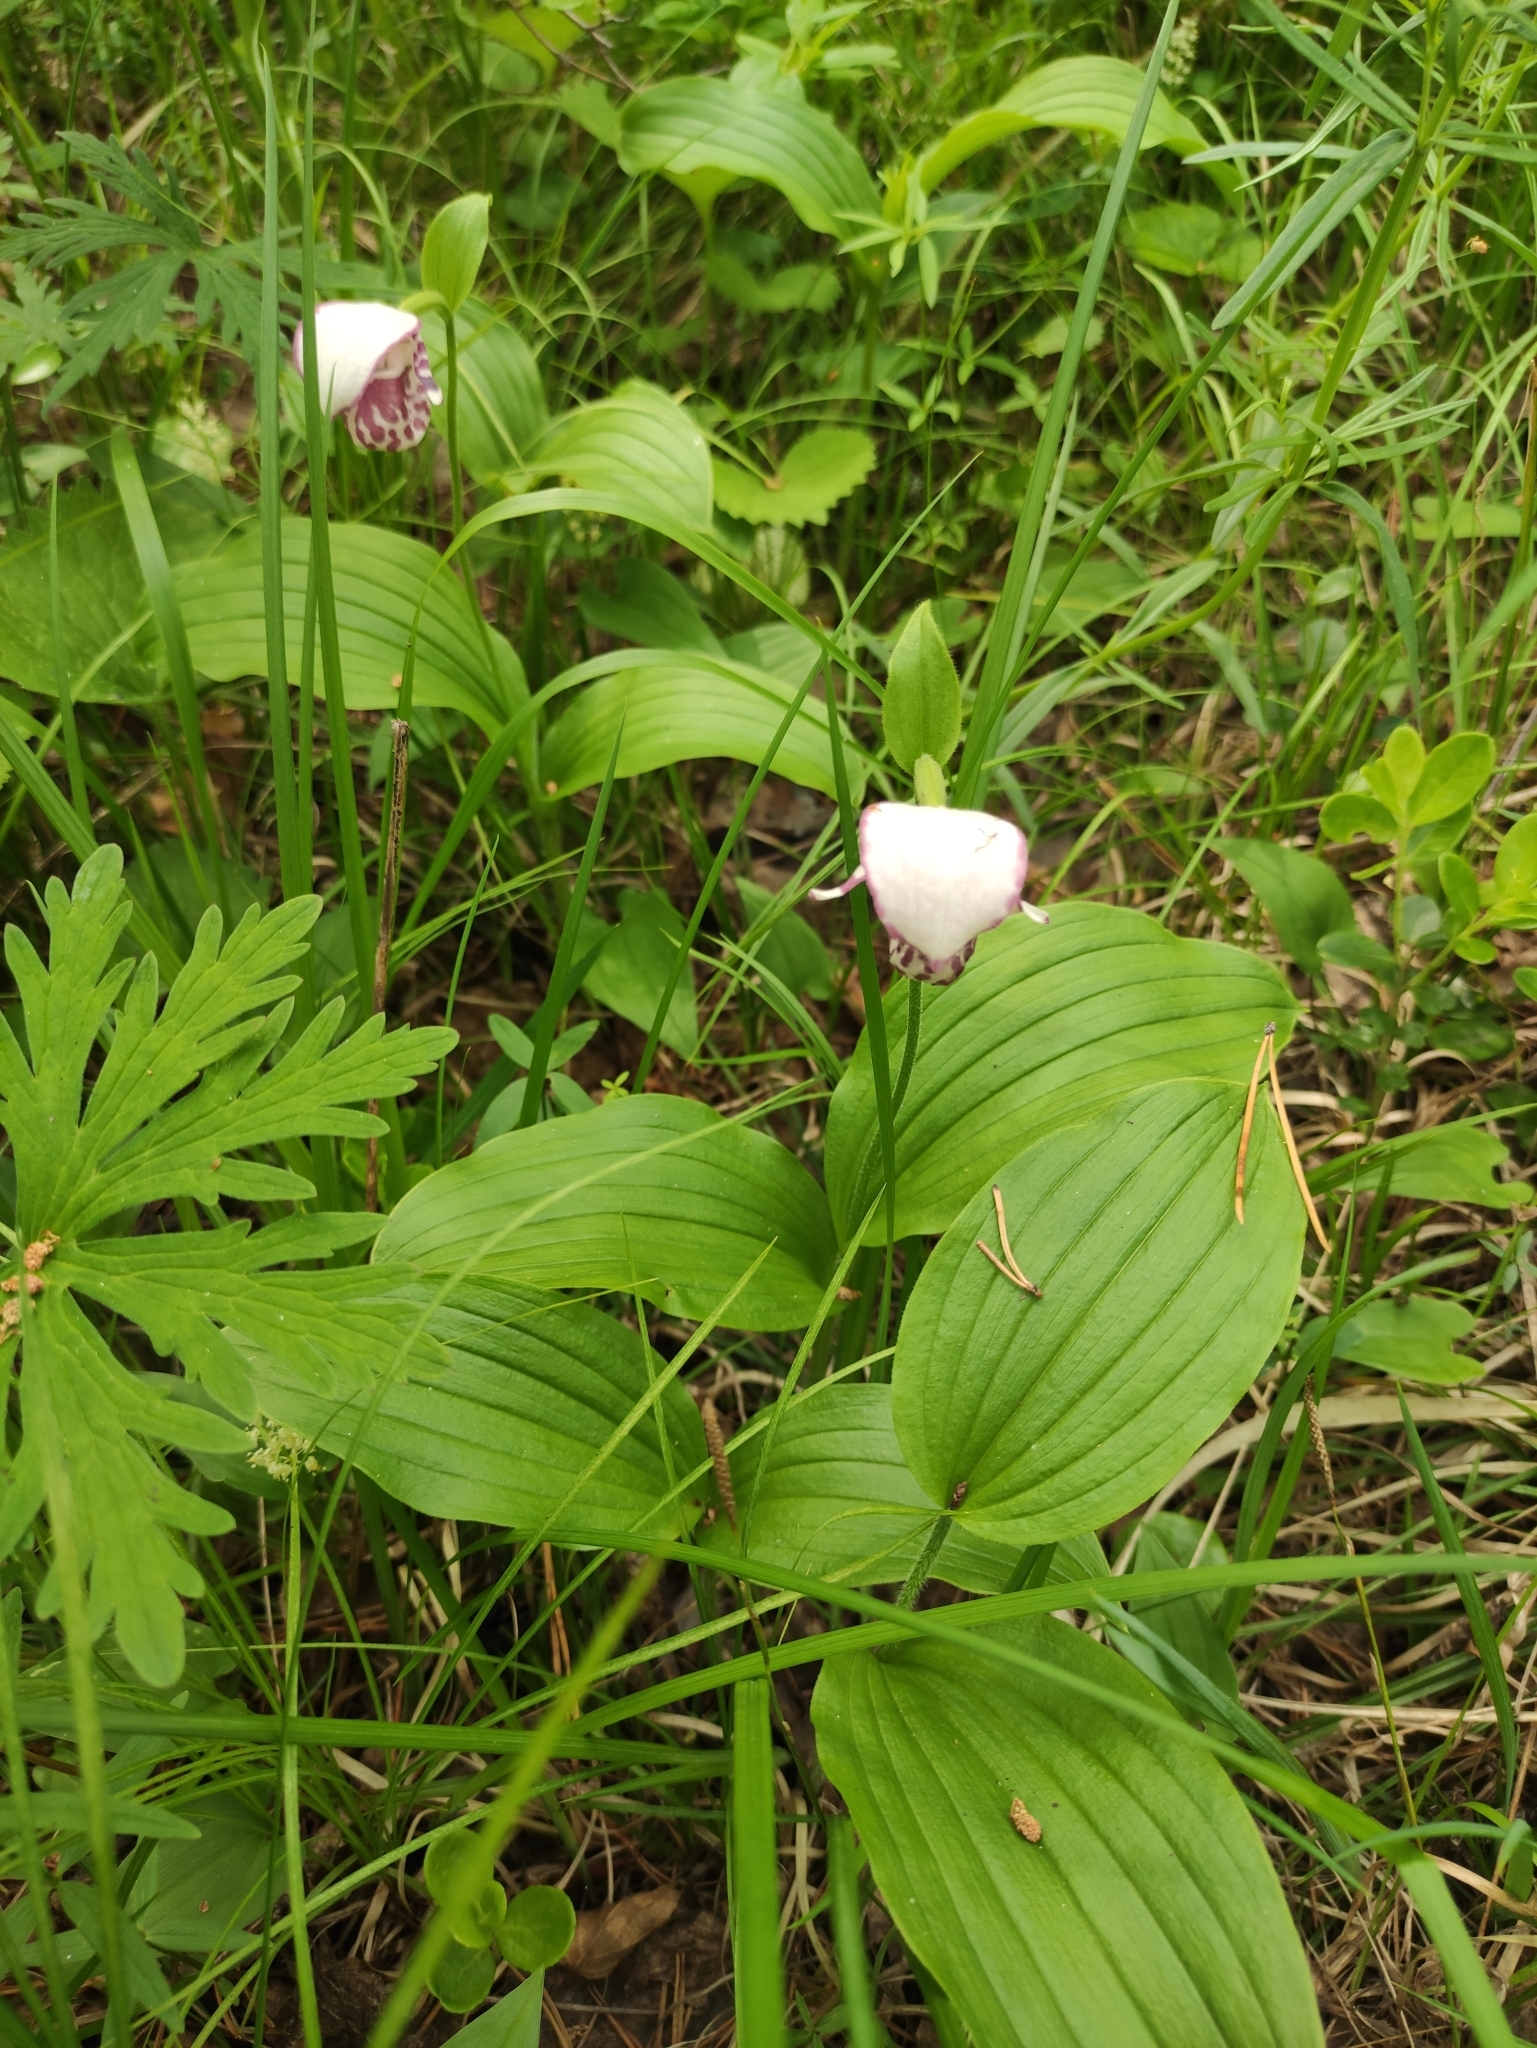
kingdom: Plantae
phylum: Tracheophyta
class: Liliopsida
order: Asparagales
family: Orchidaceae
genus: Cypripedium
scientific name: Cypripedium guttatum
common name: Pink lady slipper
